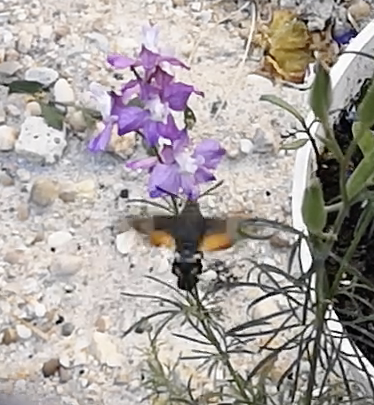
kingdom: Animalia
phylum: Arthropoda
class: Insecta
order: Lepidoptera
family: Sphingidae
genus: Macroglossum
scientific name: Macroglossum stellatarum
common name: Humming-bird hawk-moth
